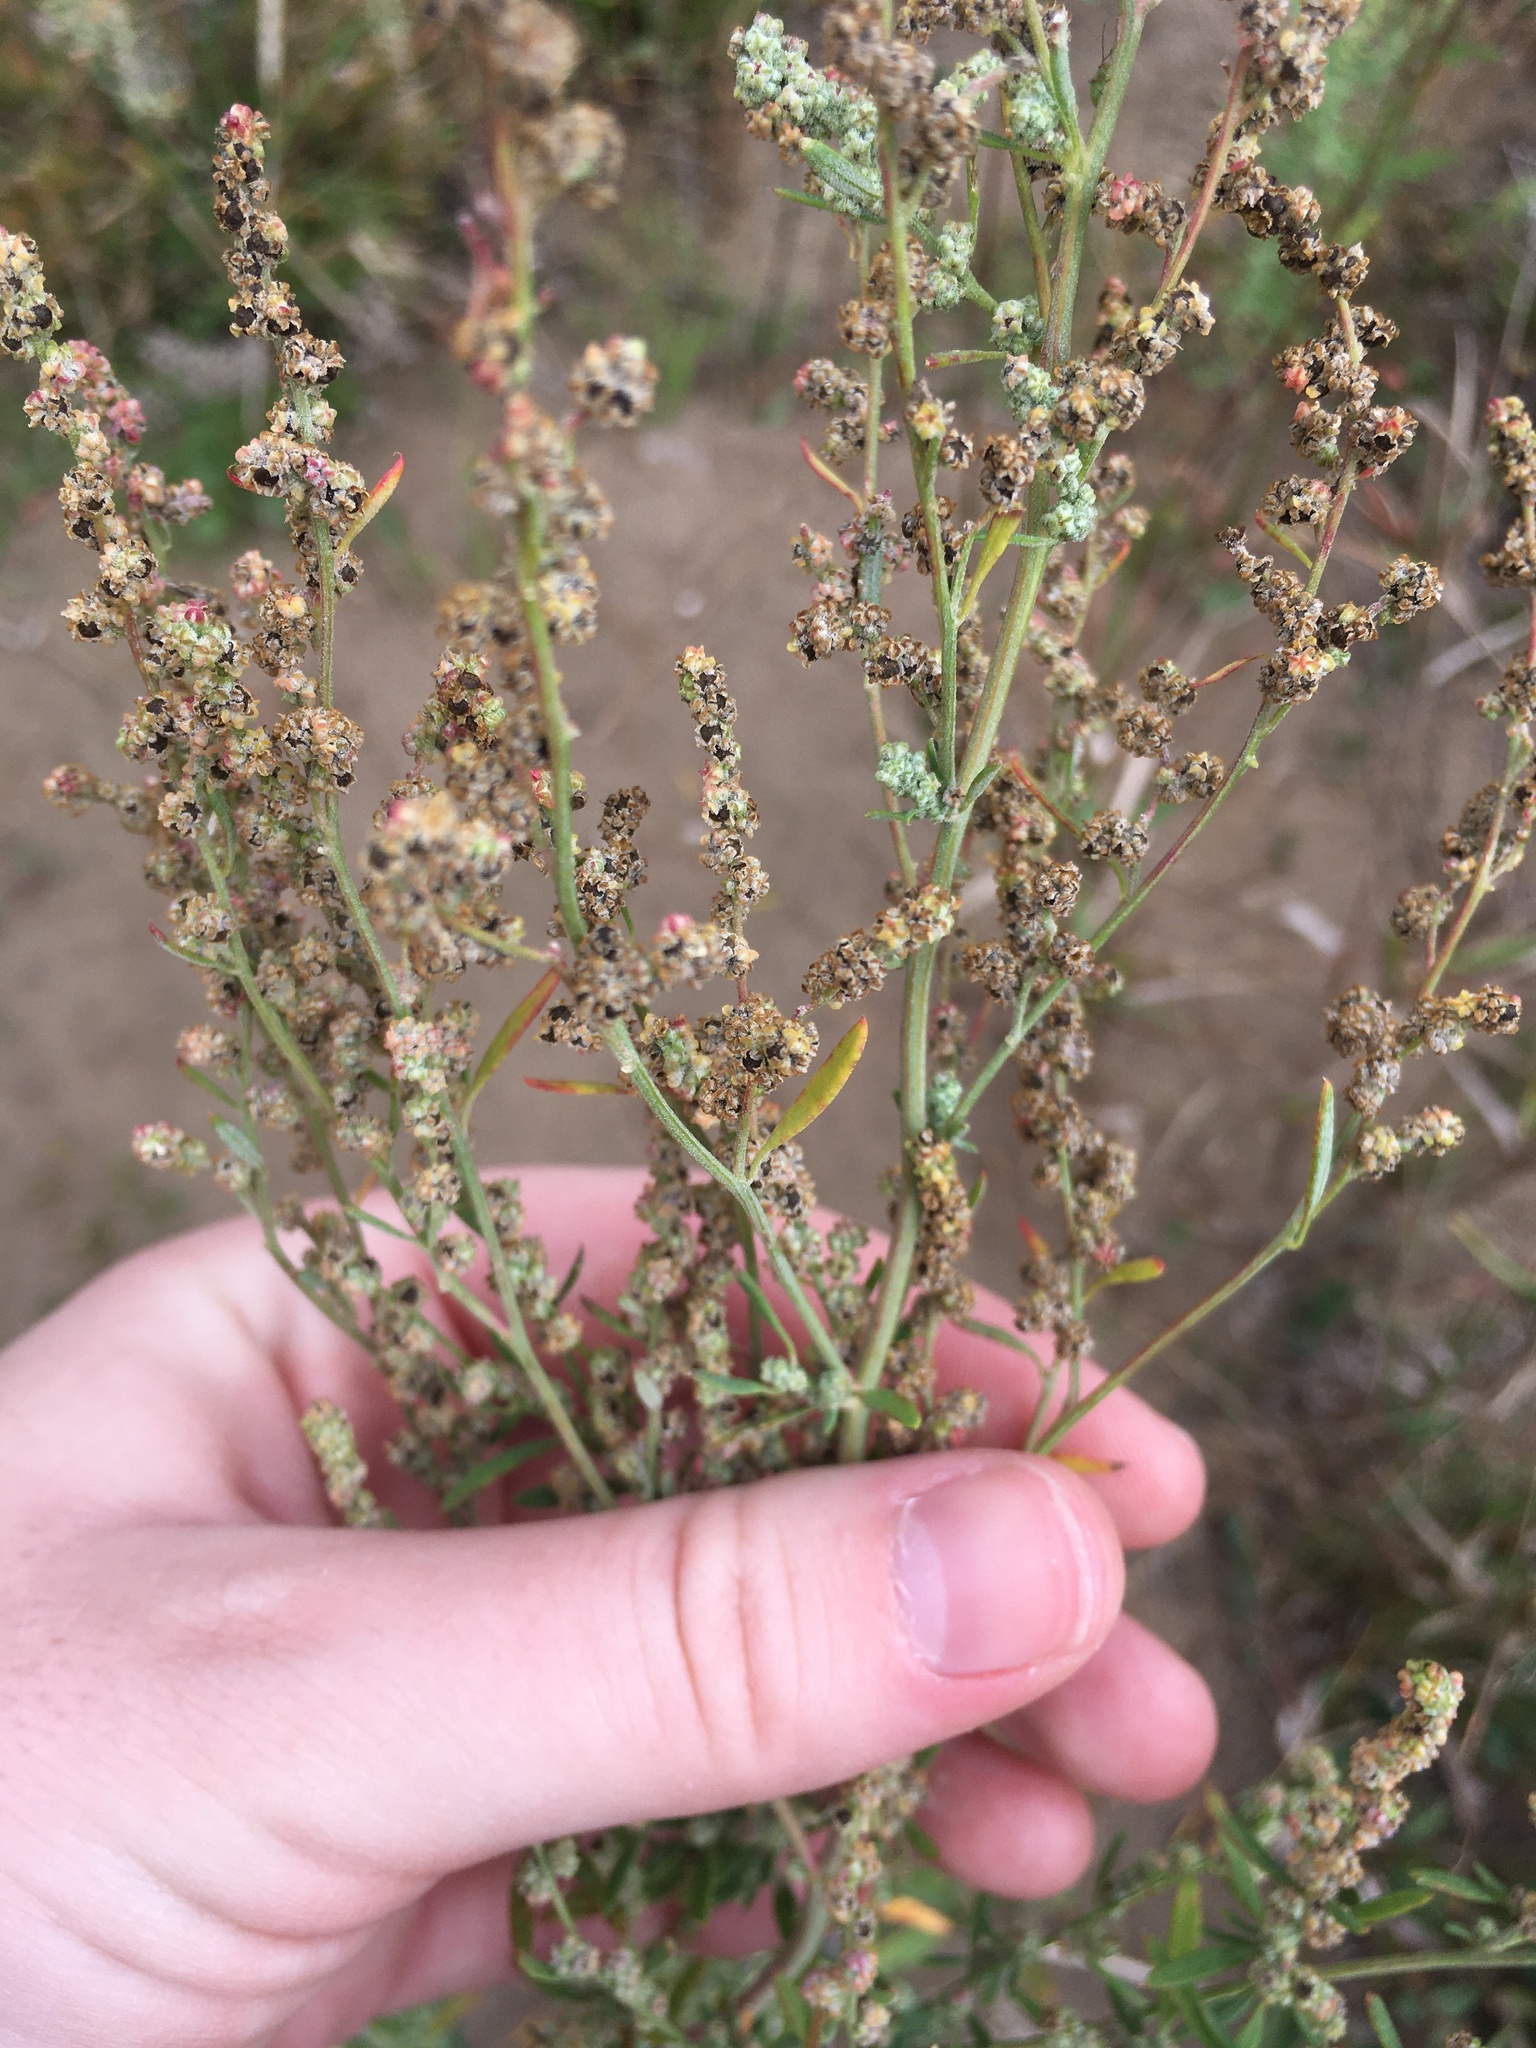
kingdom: Plantae
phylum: Tracheophyta
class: Magnoliopsida
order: Asterales
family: Asteraceae
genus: Ambrosia
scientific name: Ambrosia psilostachya
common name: Perennial ragweed
